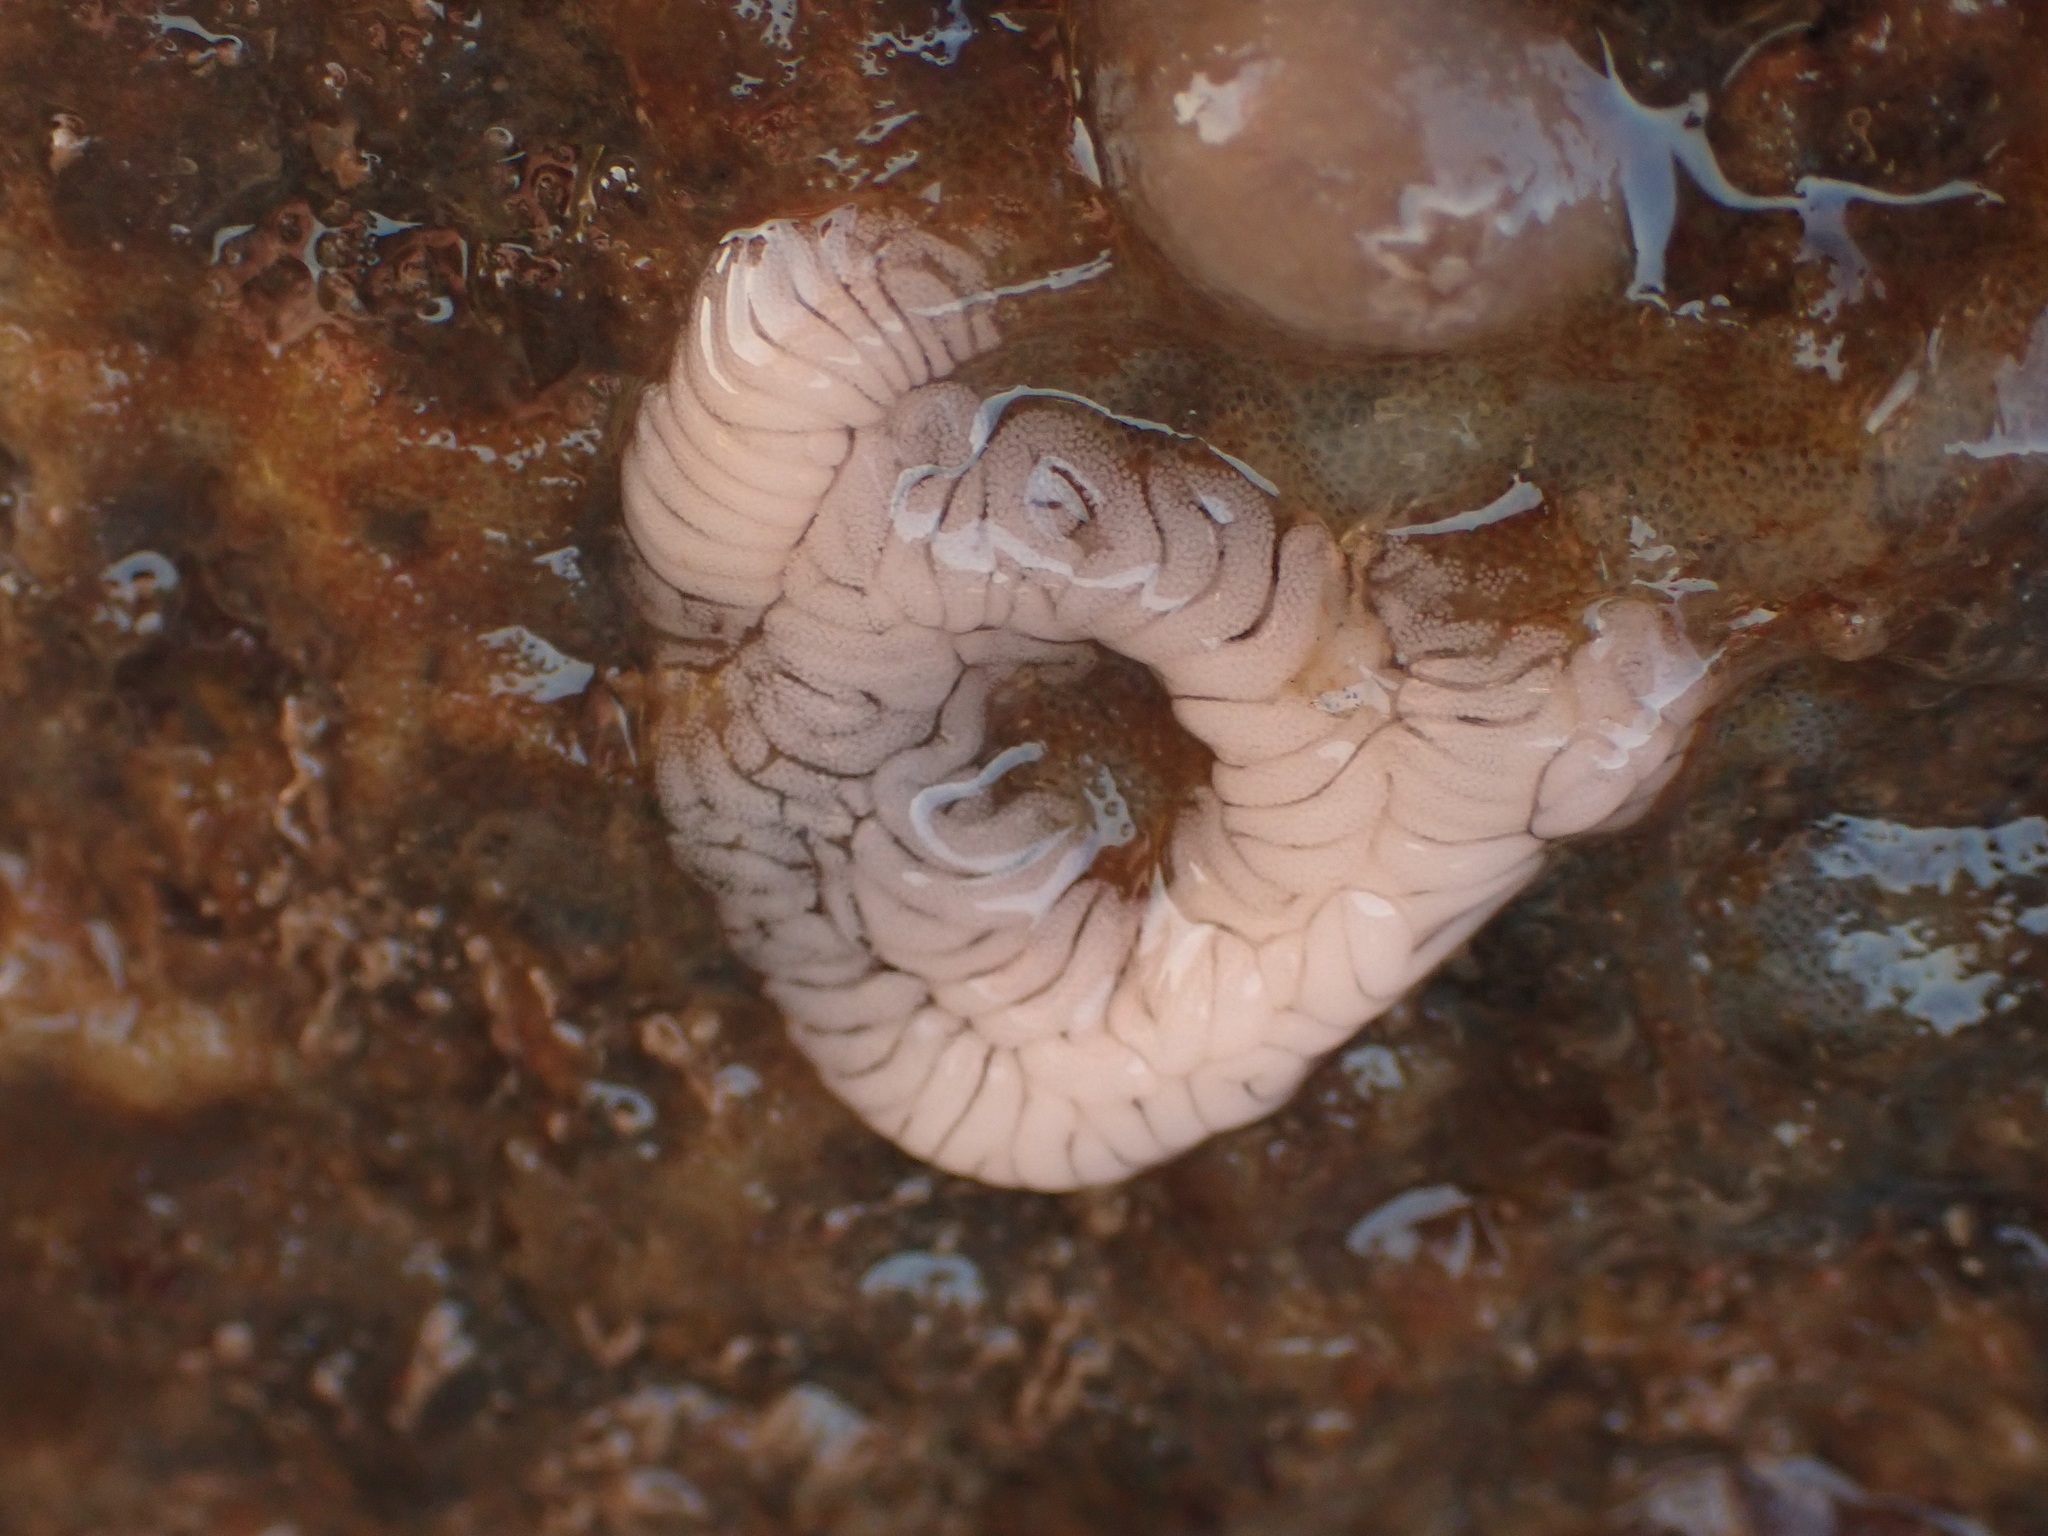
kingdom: Animalia
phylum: Mollusca
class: Gastropoda
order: Nudibranchia
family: Aeolidiidae
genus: Aeolidia
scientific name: Aeolidia papillosa
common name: Common grey sea slug
